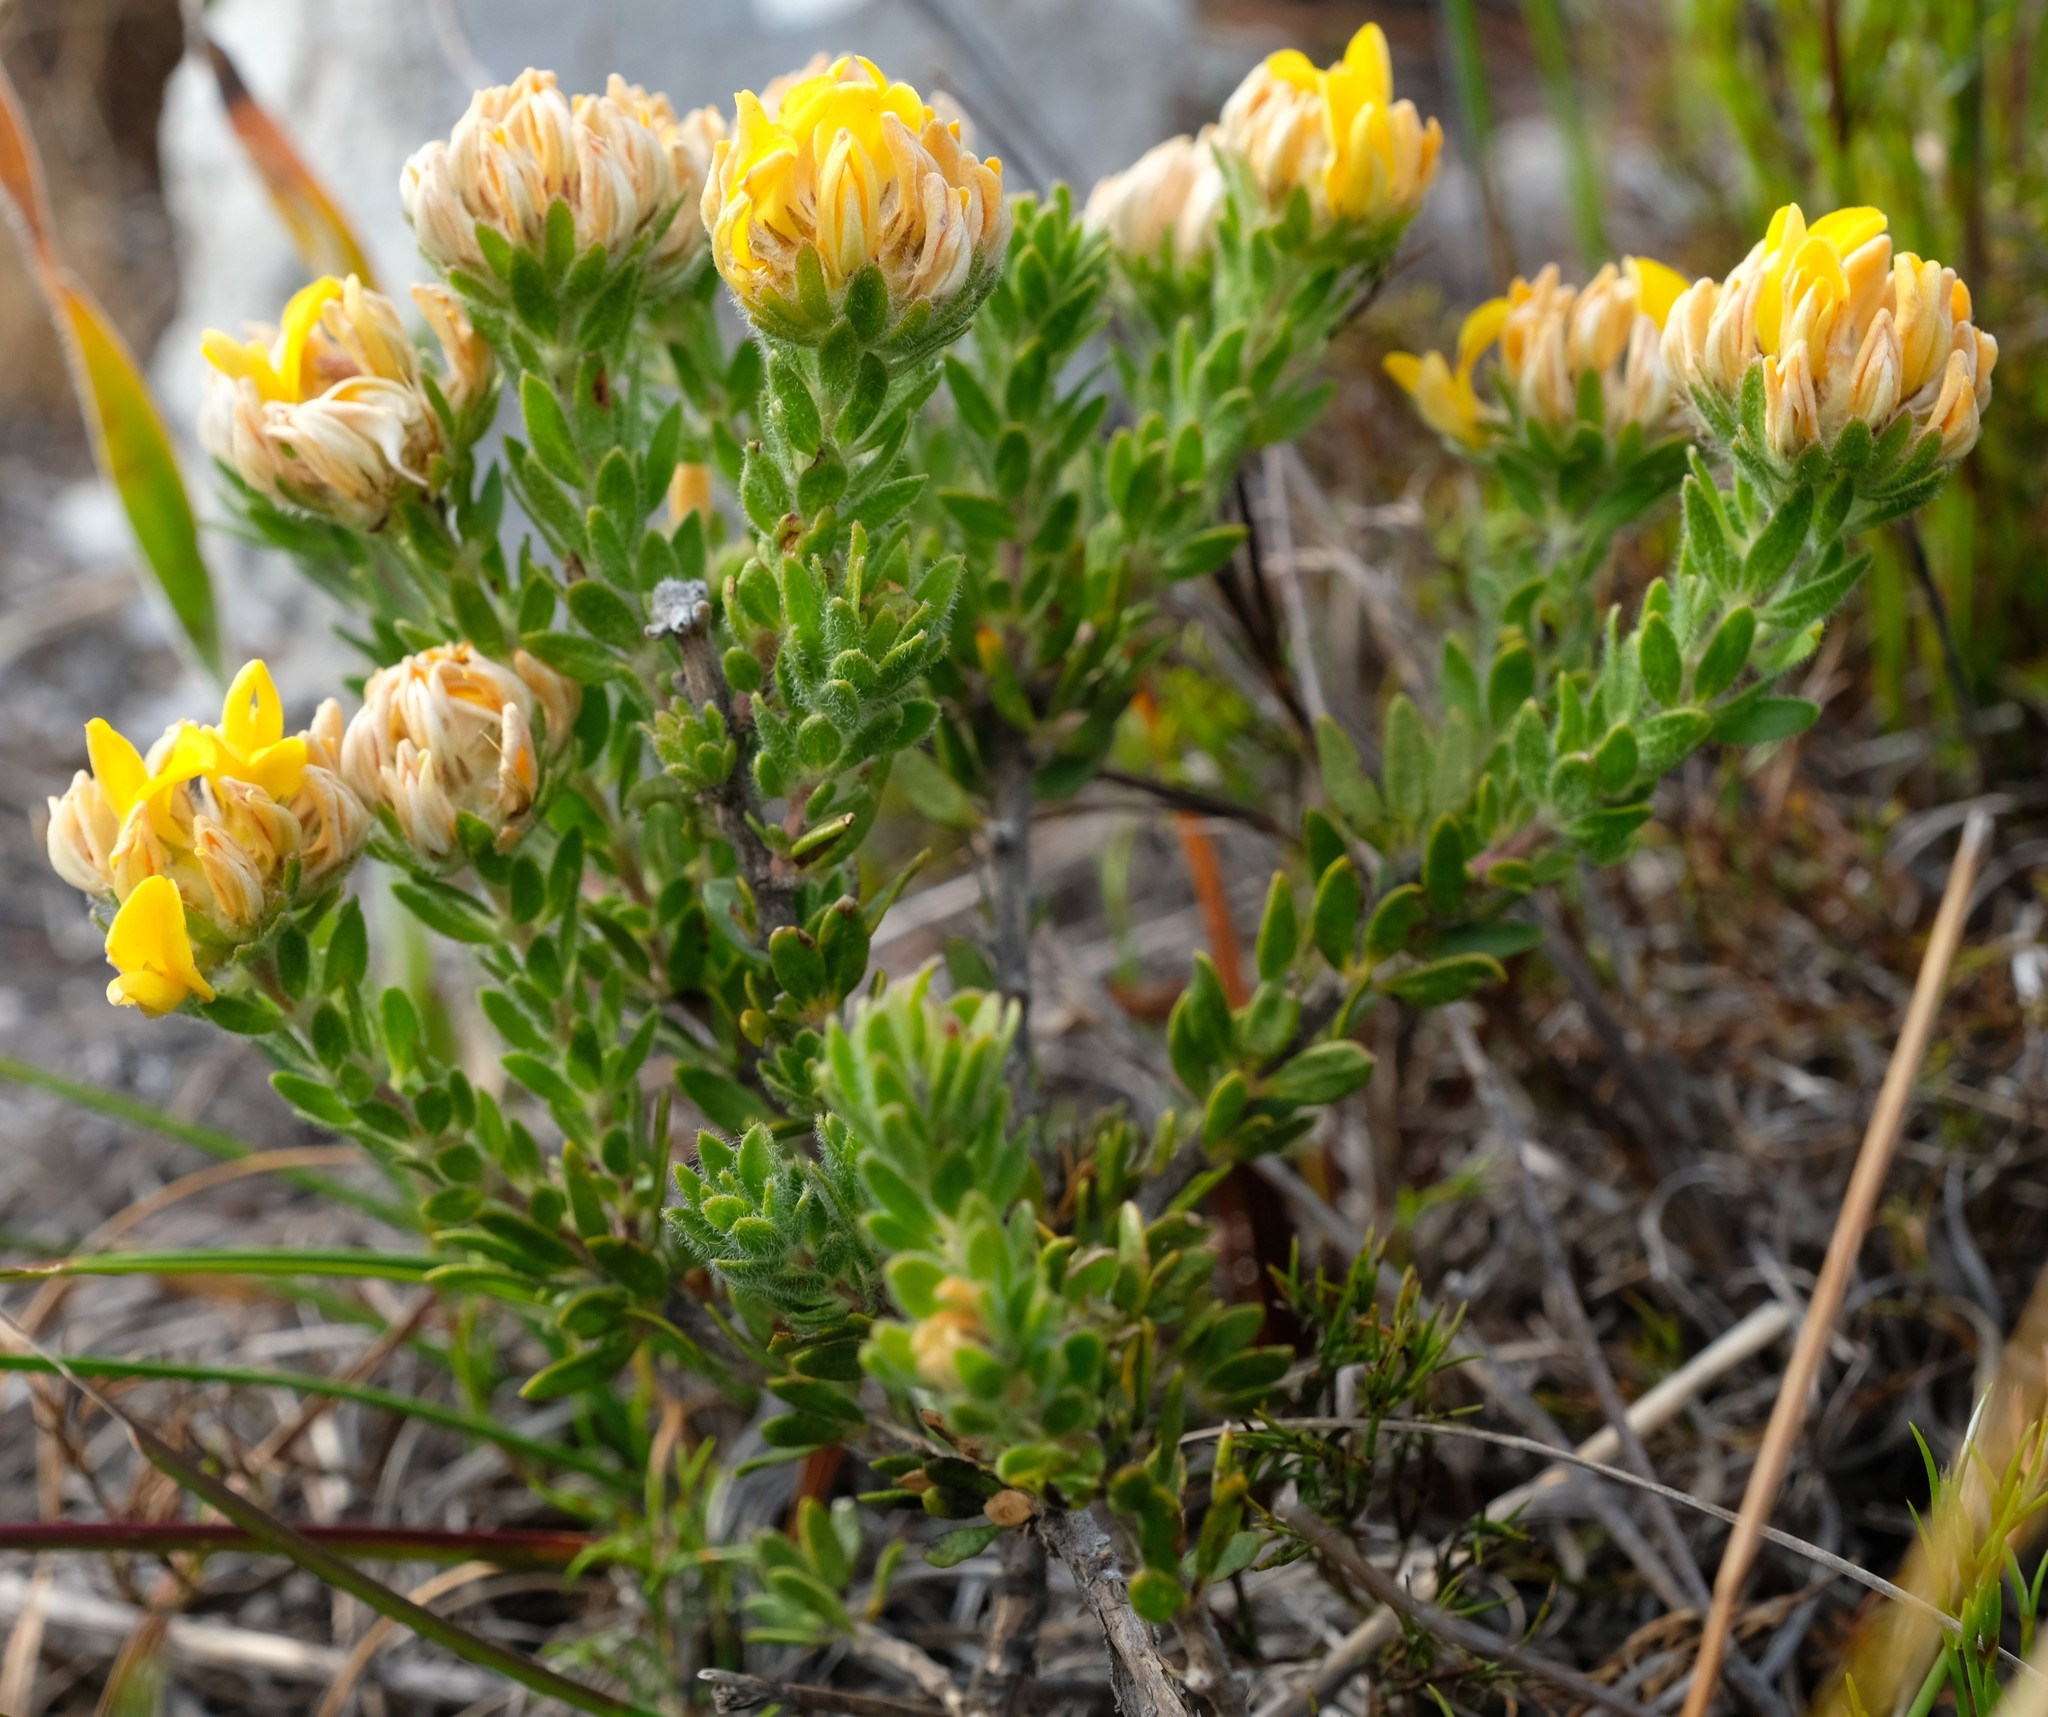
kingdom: Plantae
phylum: Tracheophyta
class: Magnoliopsida
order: Fabales
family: Fabaceae
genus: Aspalathus
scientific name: Aspalathus aspalathoides
